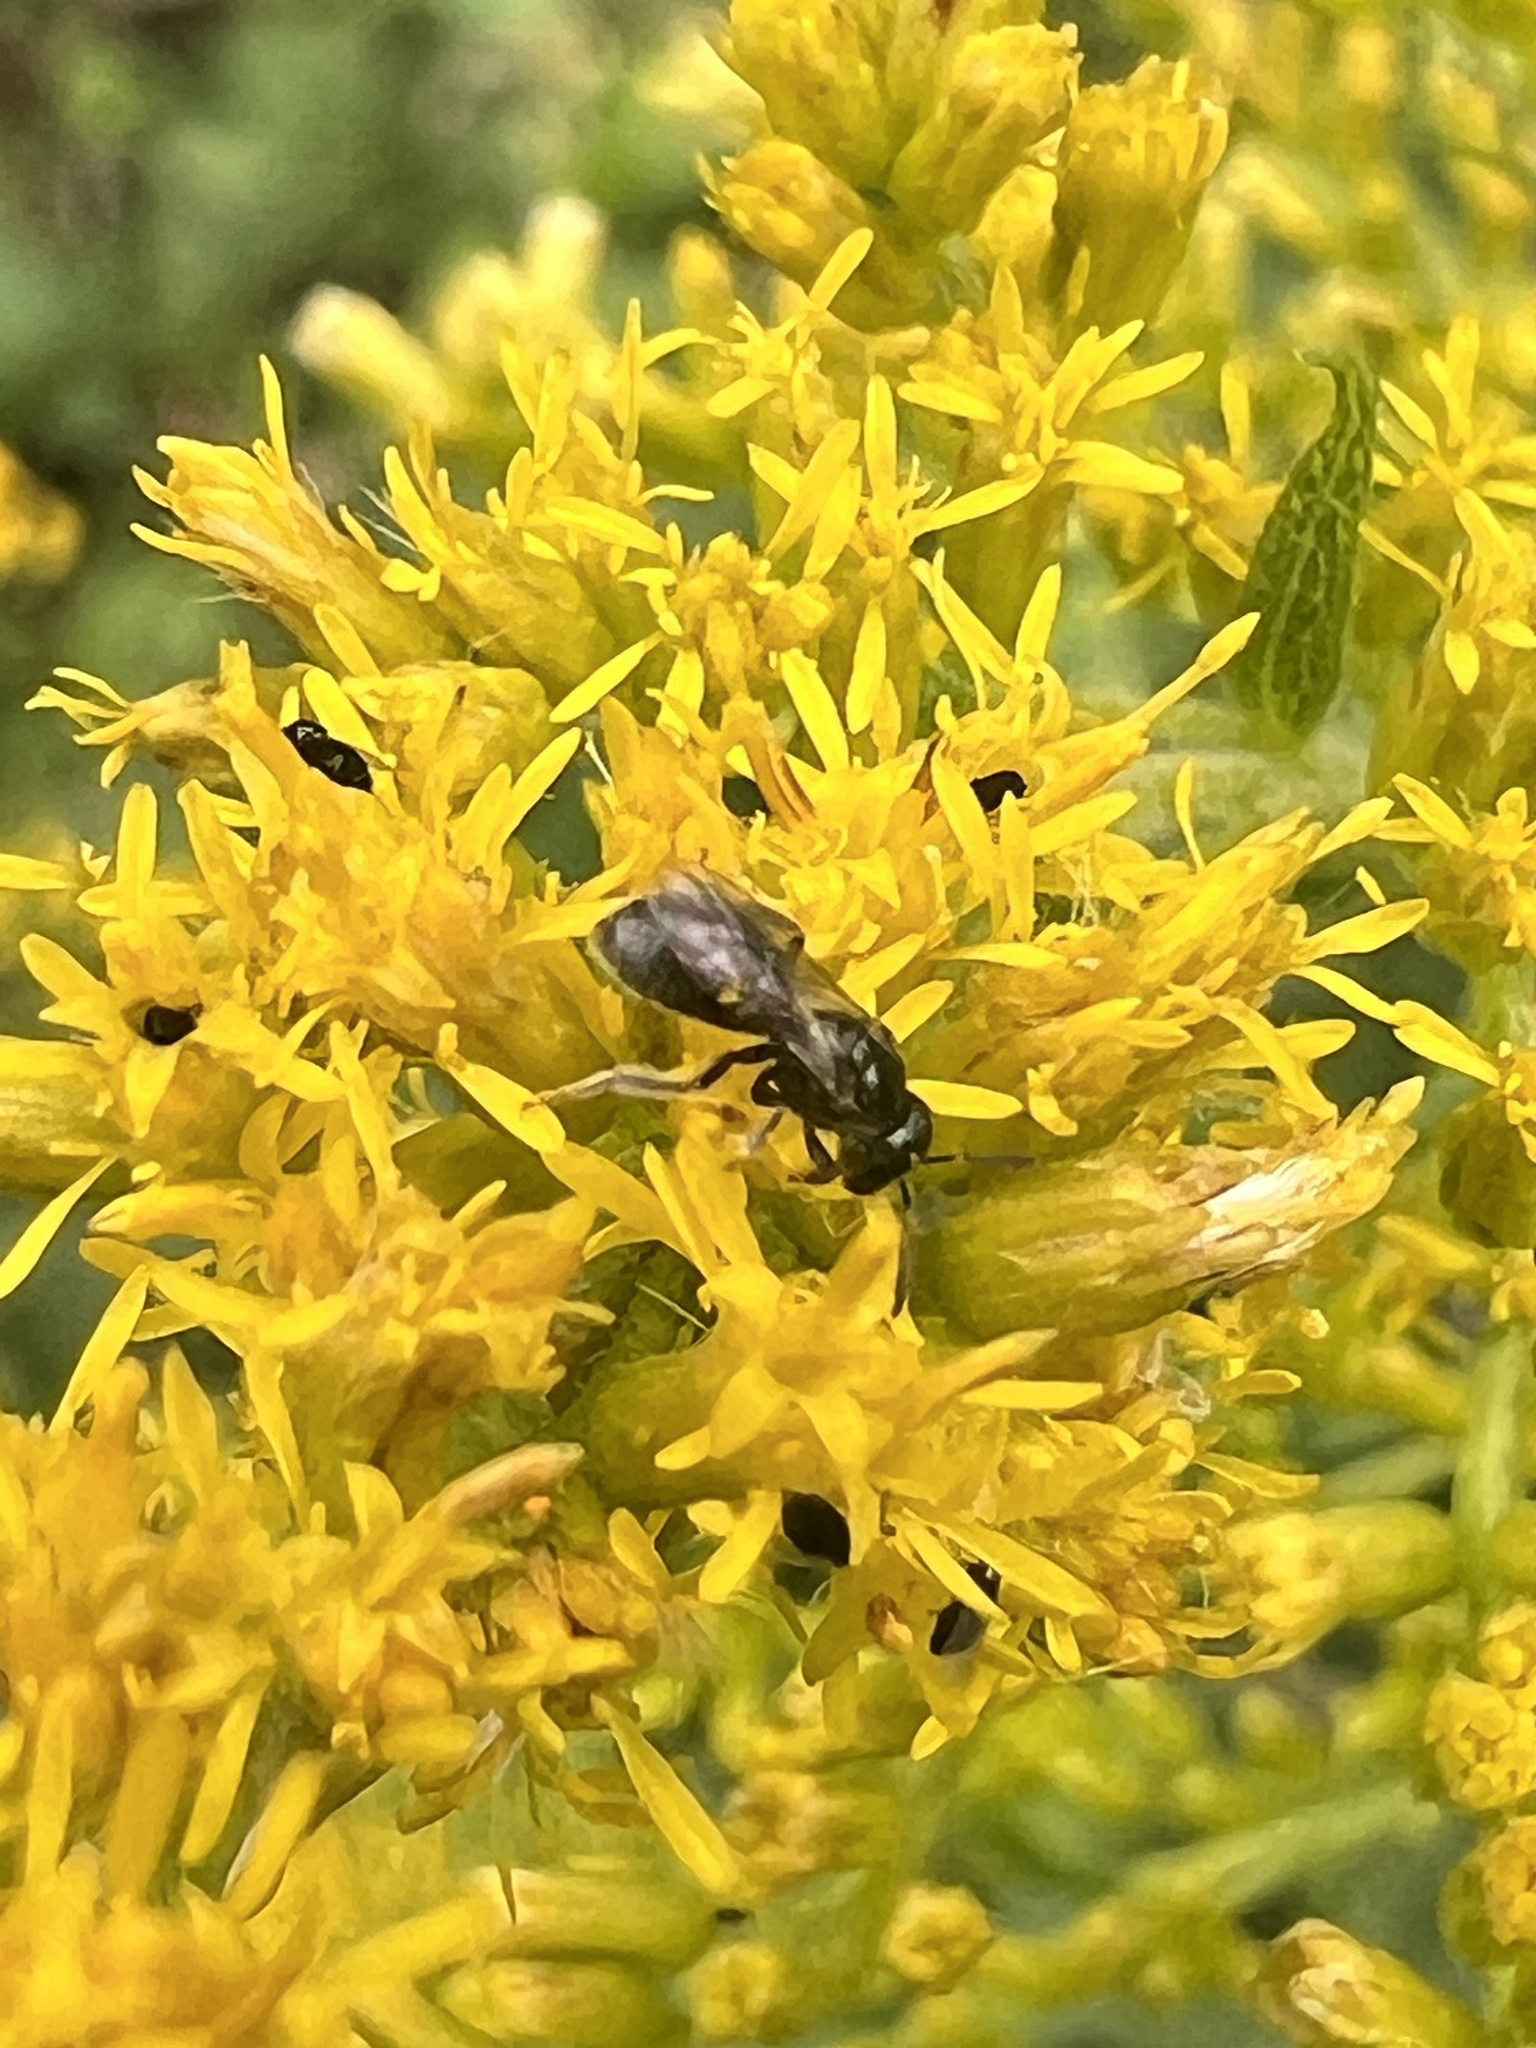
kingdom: Animalia
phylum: Arthropoda
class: Insecta
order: Hymenoptera
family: Halictidae
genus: Lasioglossum
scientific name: Lasioglossum fuscipenne
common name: Brown-winged sweat bee
